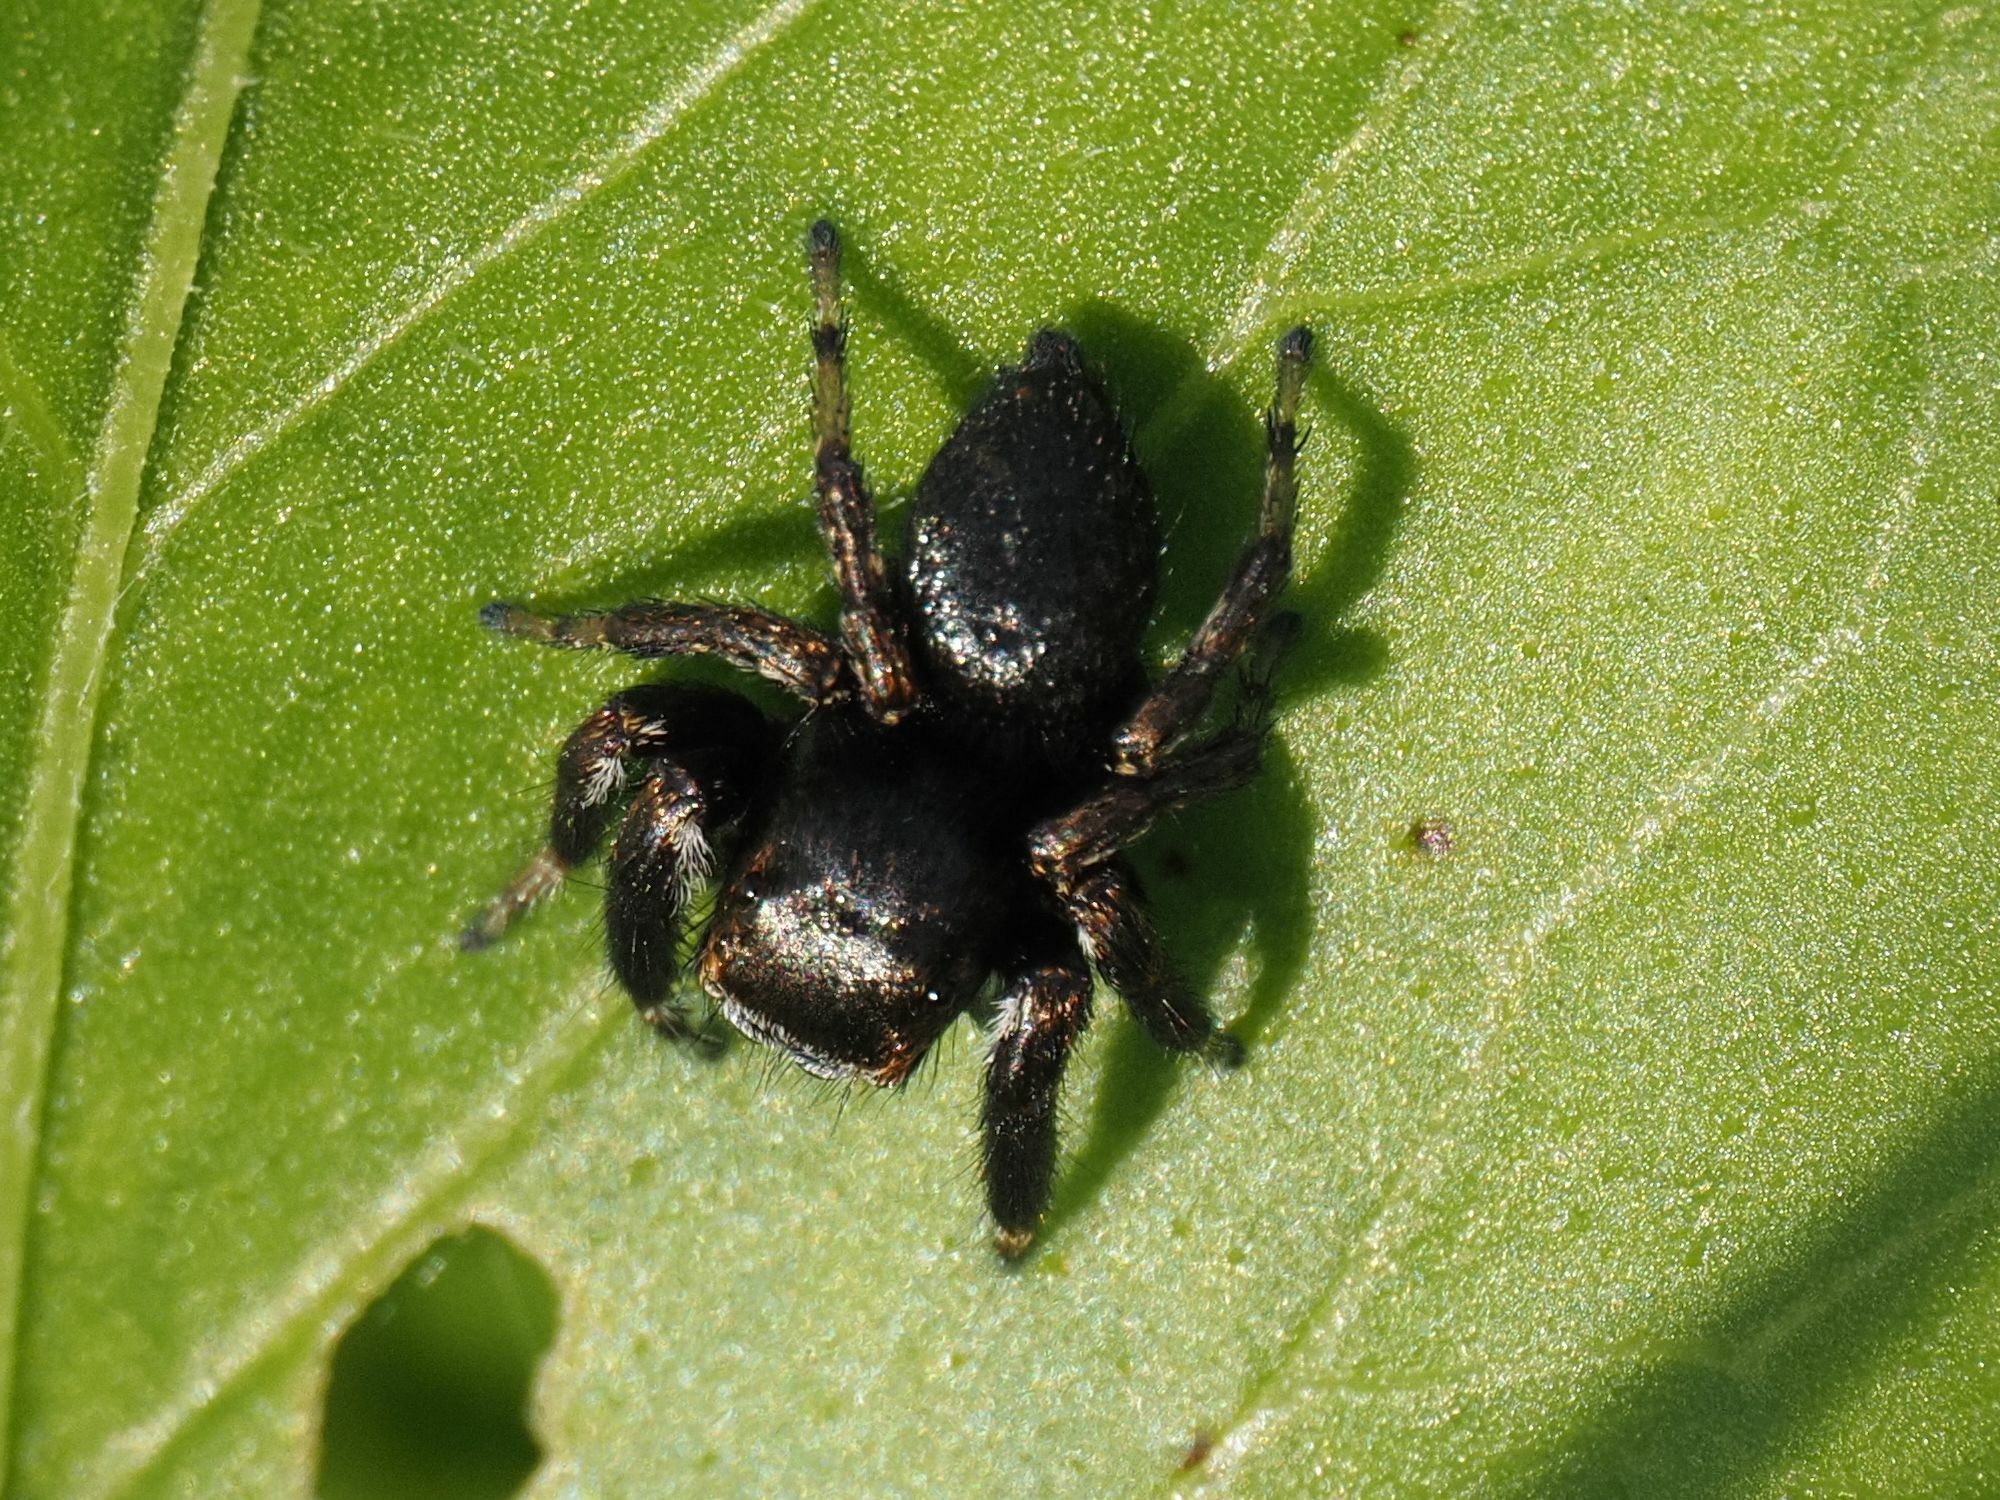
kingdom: Animalia
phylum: Arthropoda
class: Arachnida
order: Araneae
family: Salticidae
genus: Evarcha
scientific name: Evarcha arcuata
